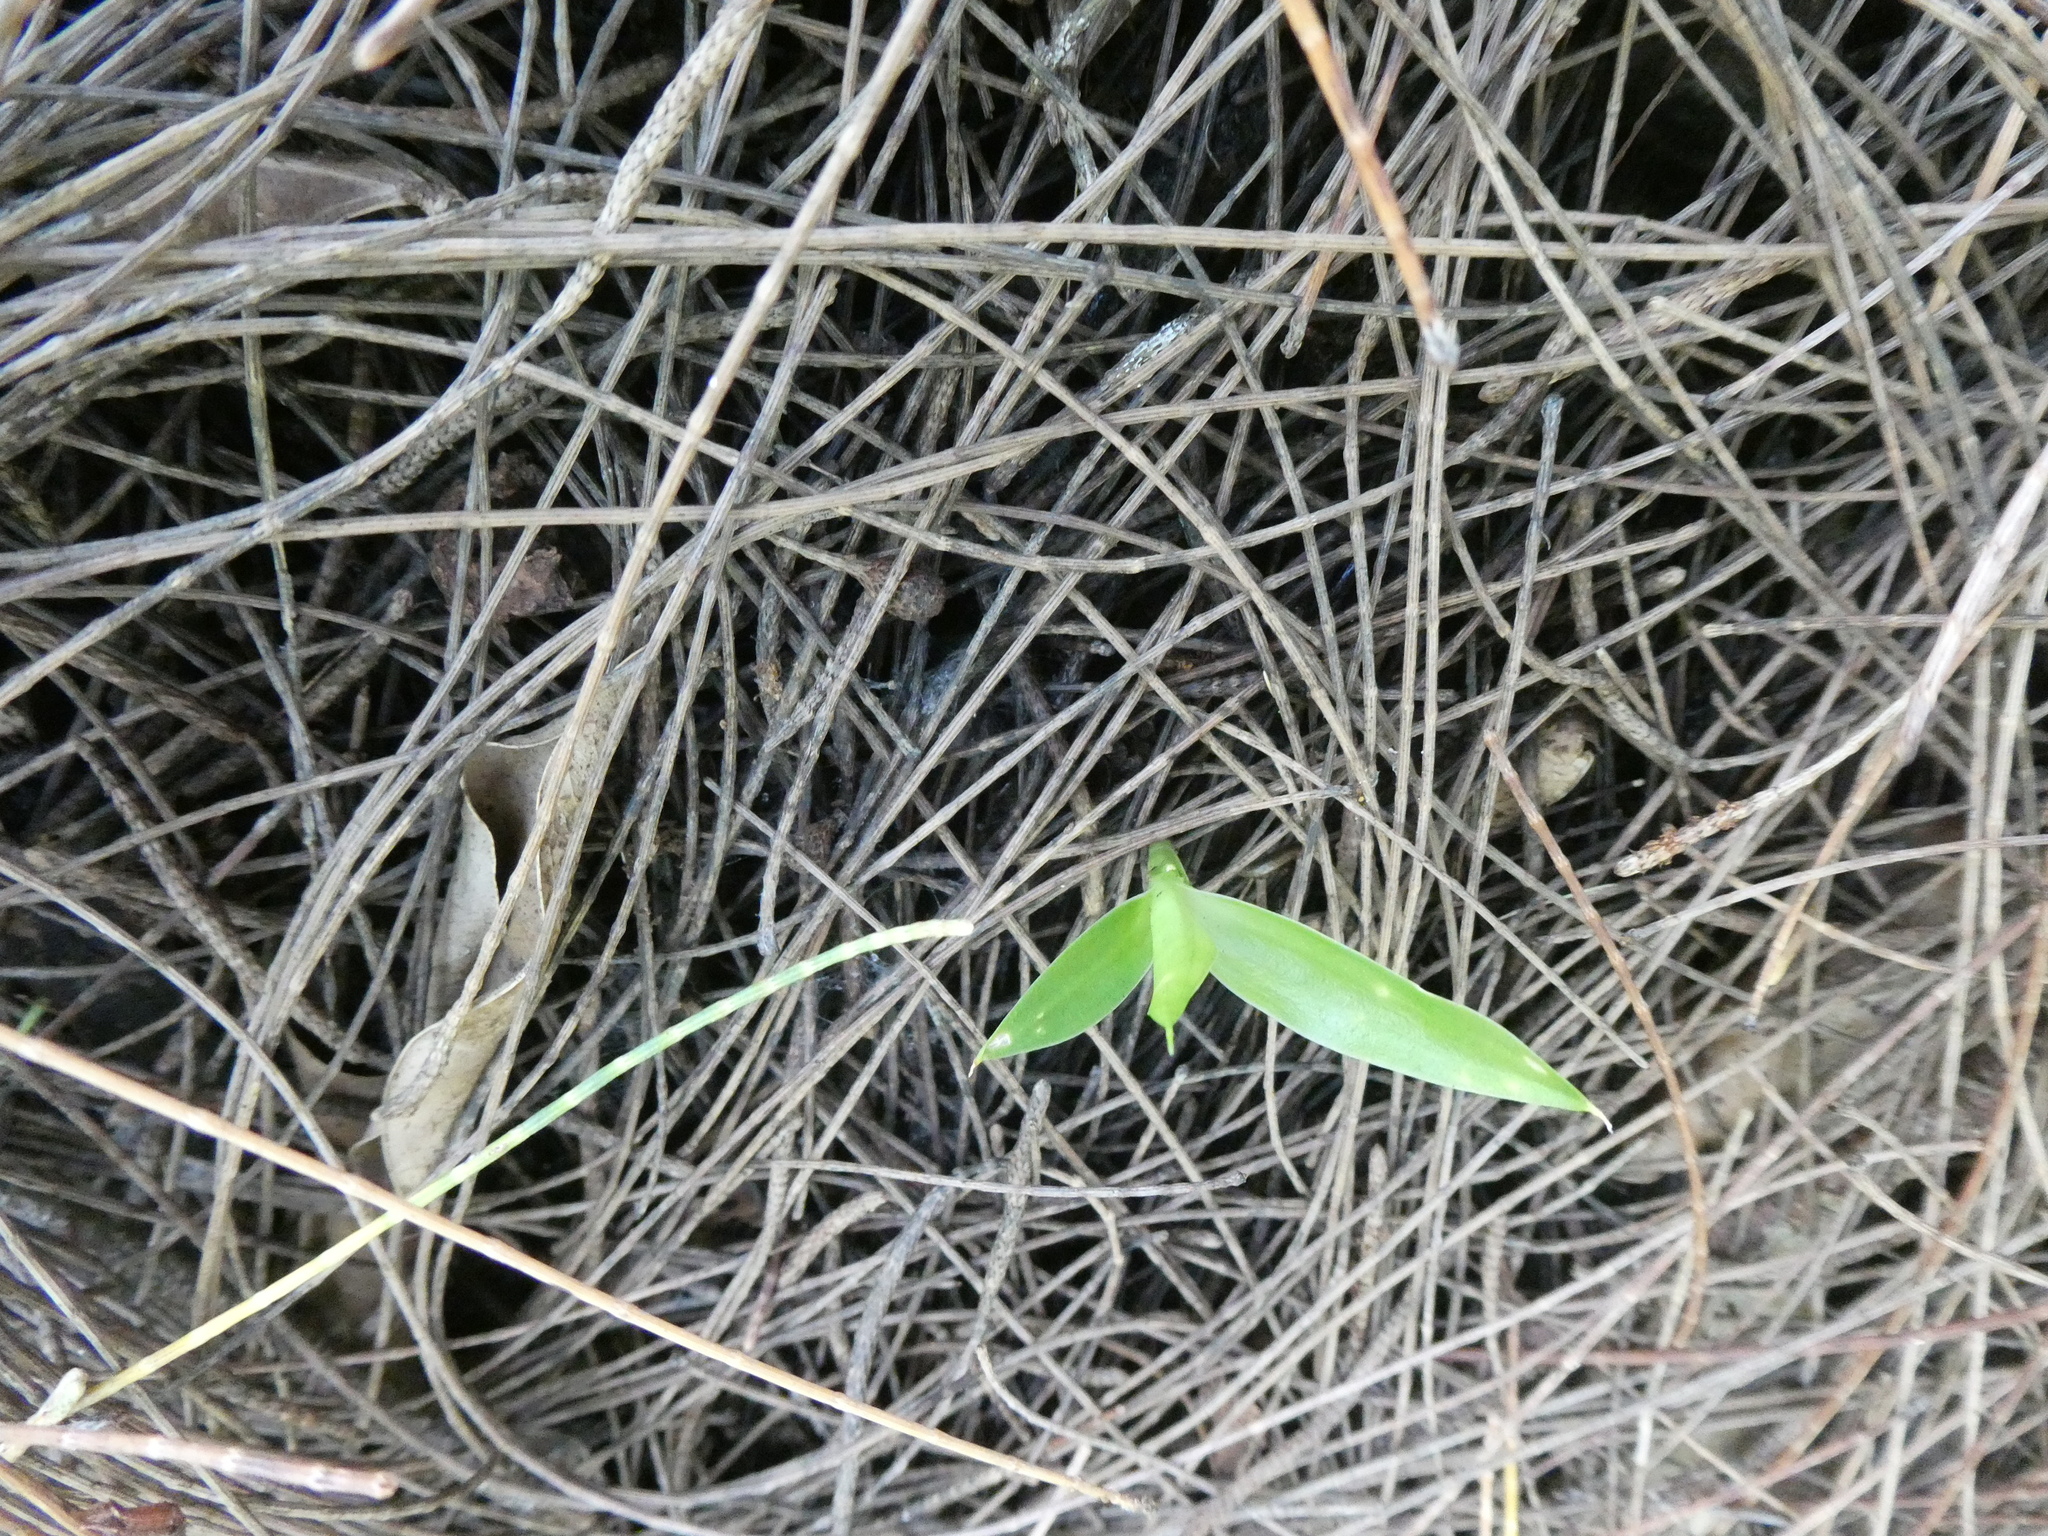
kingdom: Plantae
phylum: Tracheophyta
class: Liliopsida
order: Asparagales
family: Asparagaceae
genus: Dracaena
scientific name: Dracaena reflexa
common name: Song-of-india
